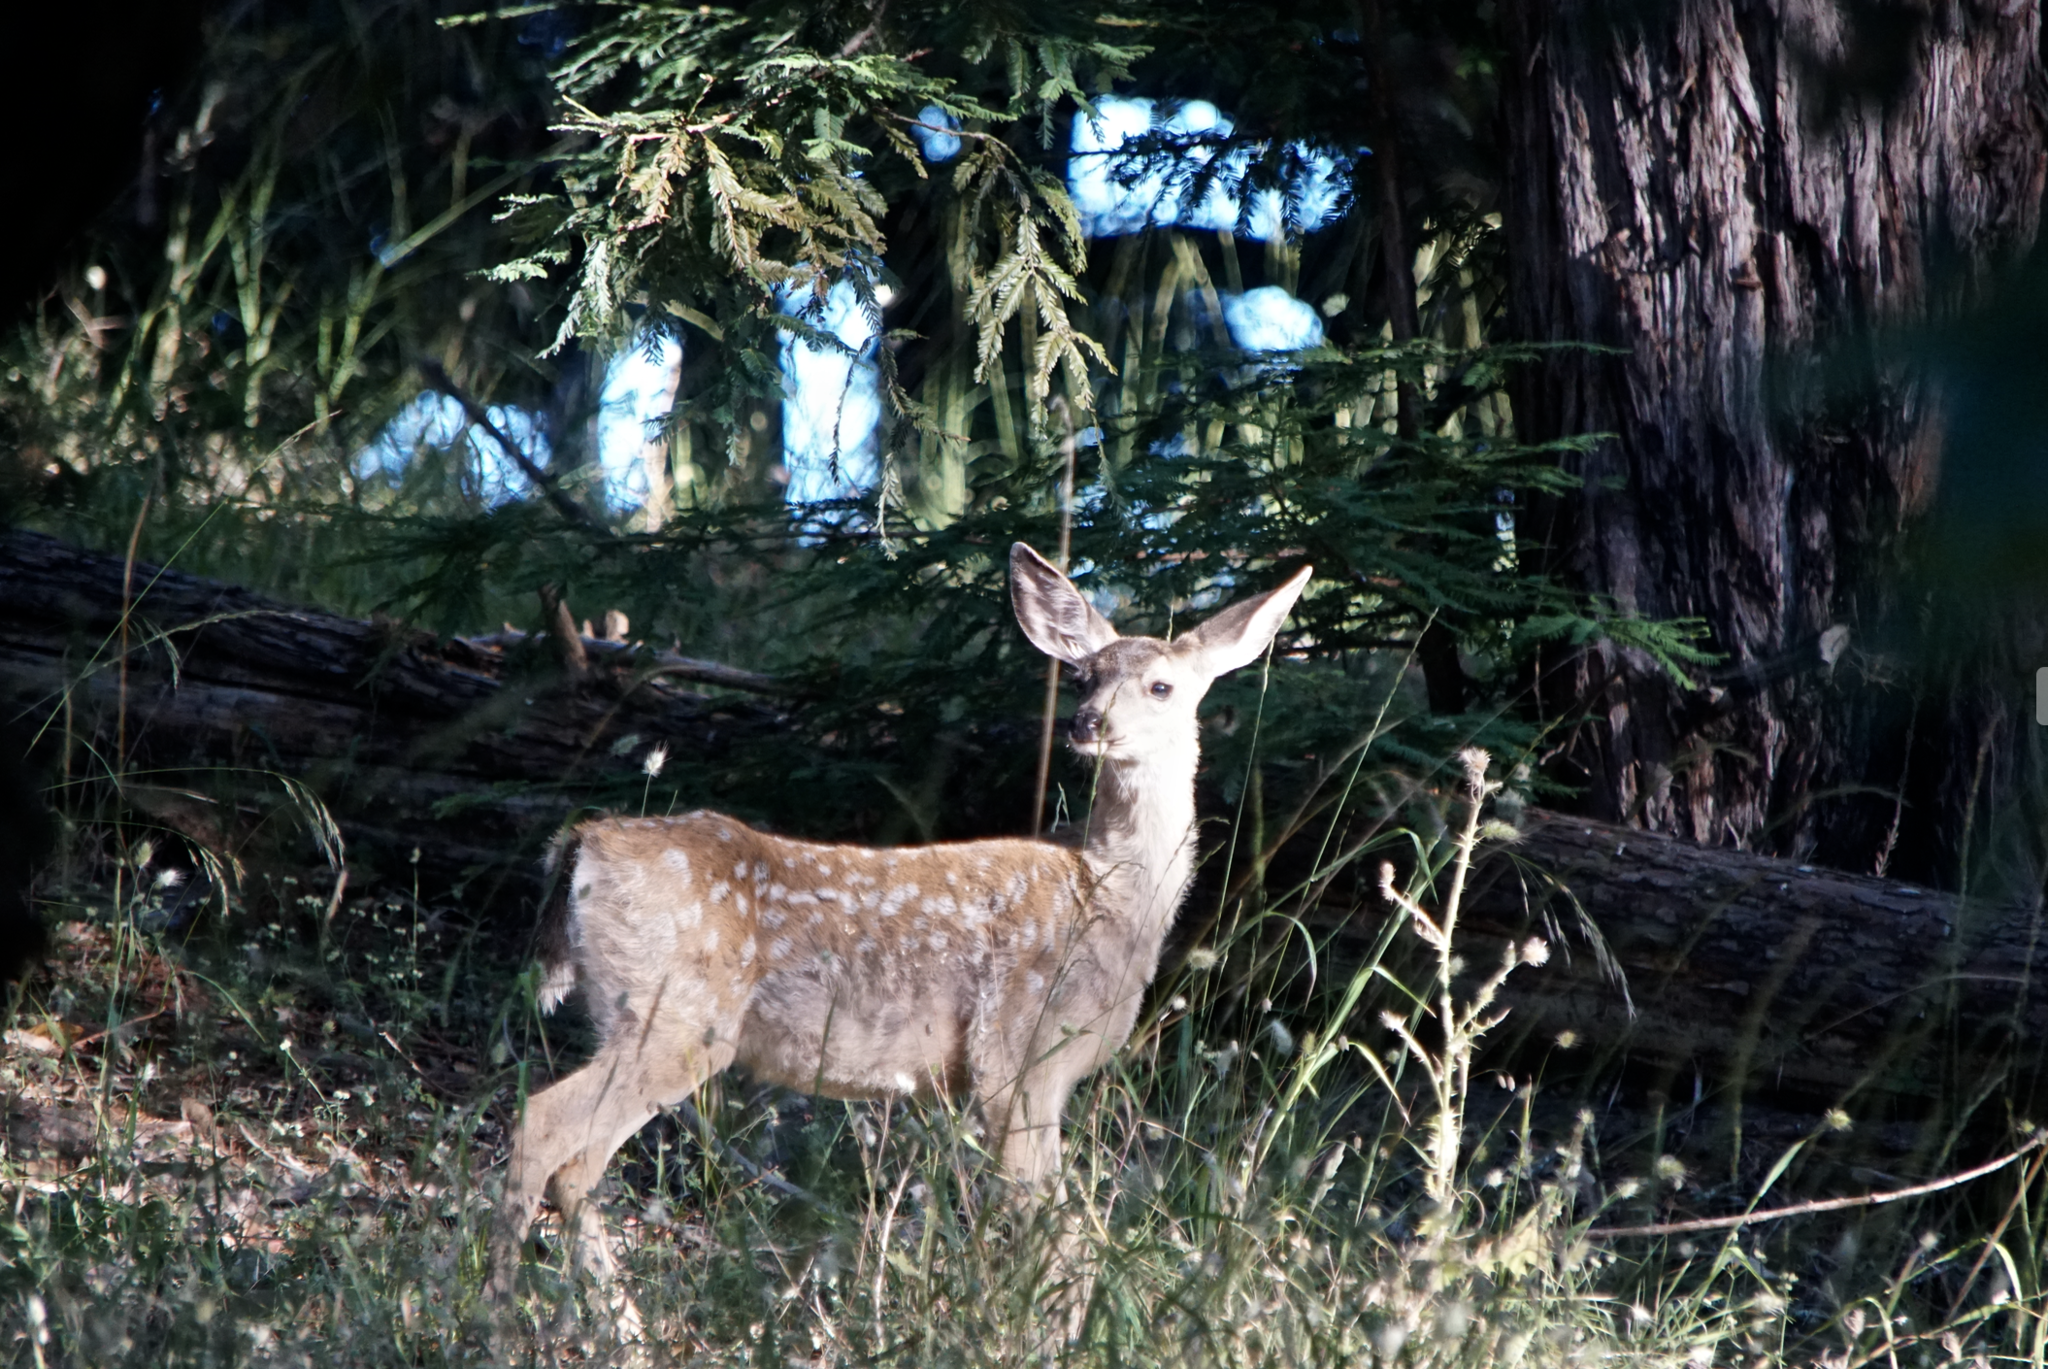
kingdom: Animalia
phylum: Chordata
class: Mammalia
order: Artiodactyla
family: Cervidae
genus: Odocoileus
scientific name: Odocoileus hemionus
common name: Mule deer
